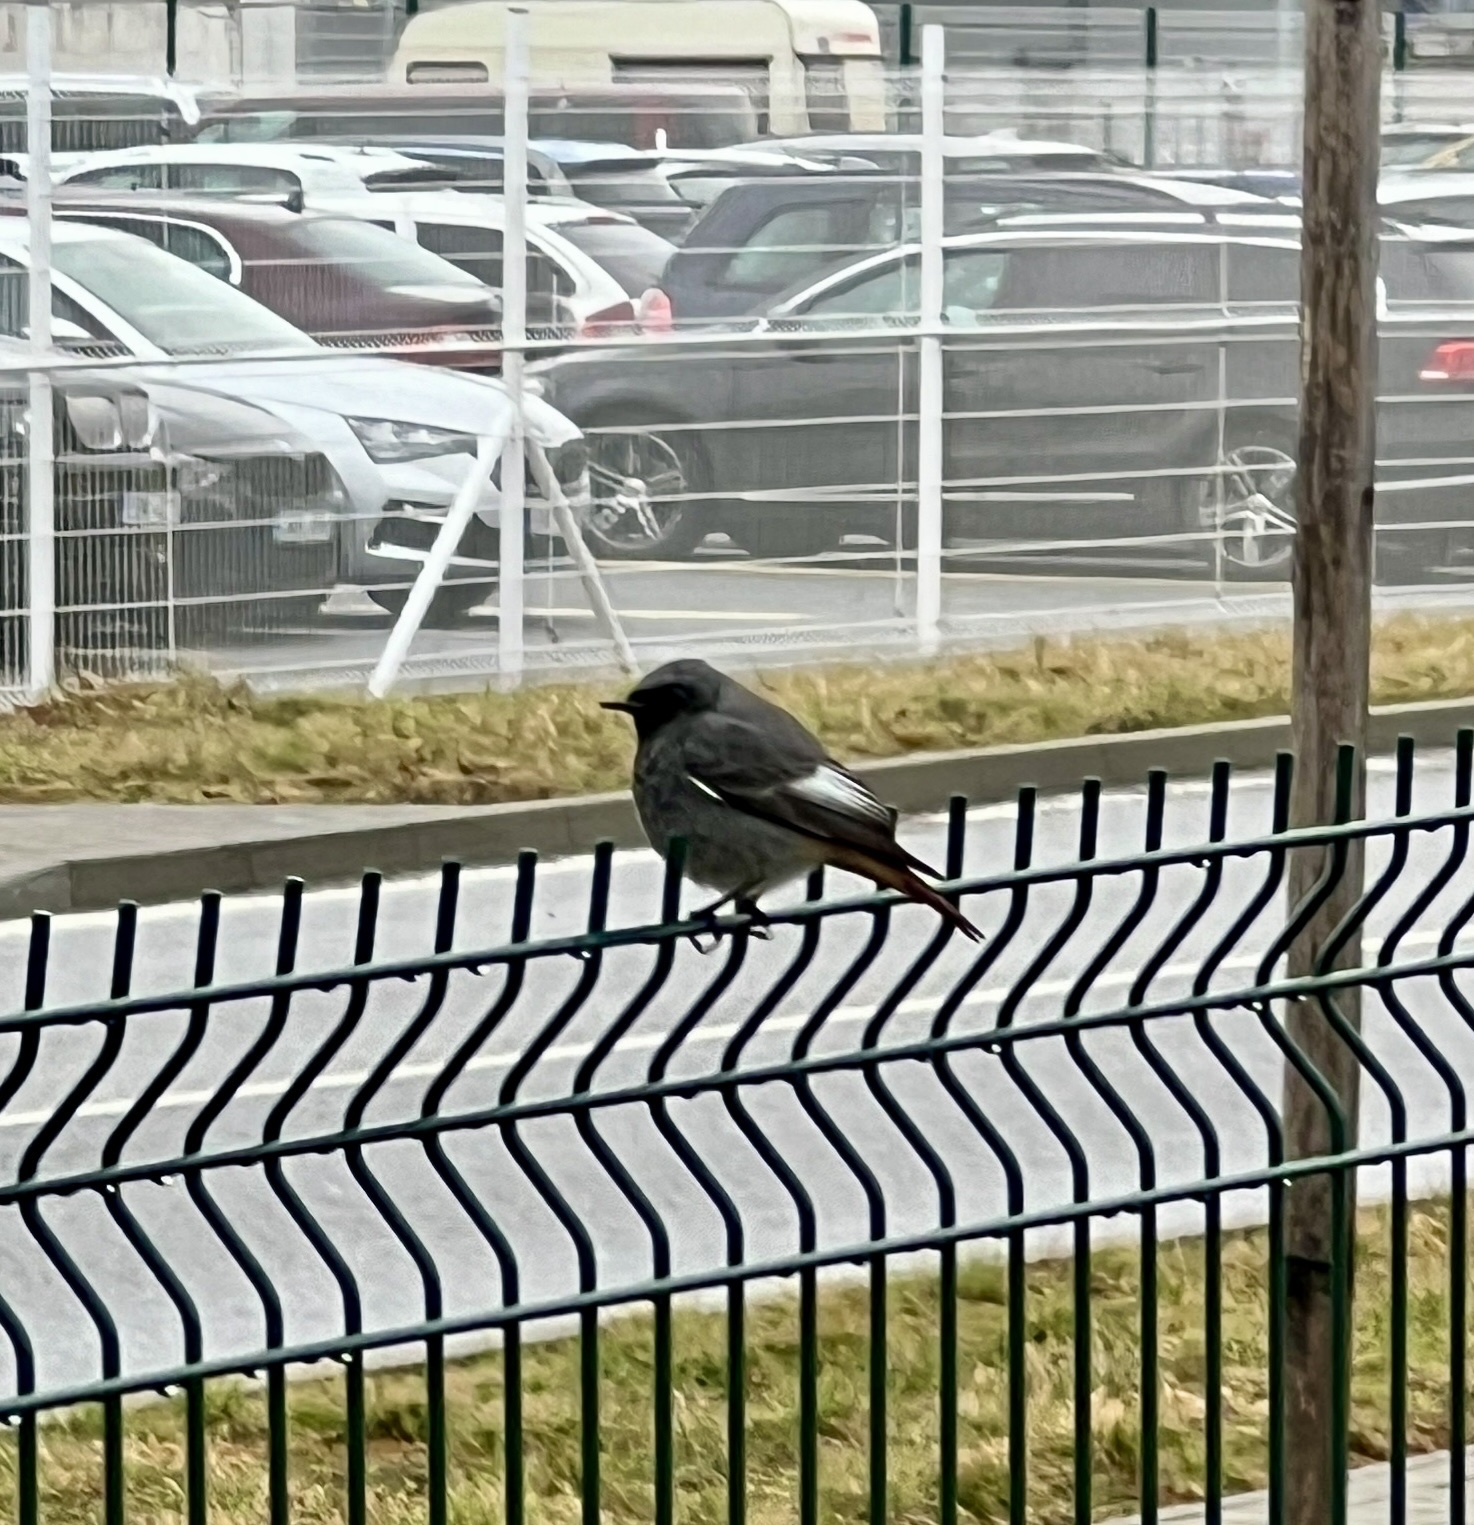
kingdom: Animalia
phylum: Chordata
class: Aves
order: Passeriformes
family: Muscicapidae
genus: Phoenicurus
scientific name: Phoenicurus ochruros
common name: Black redstart
